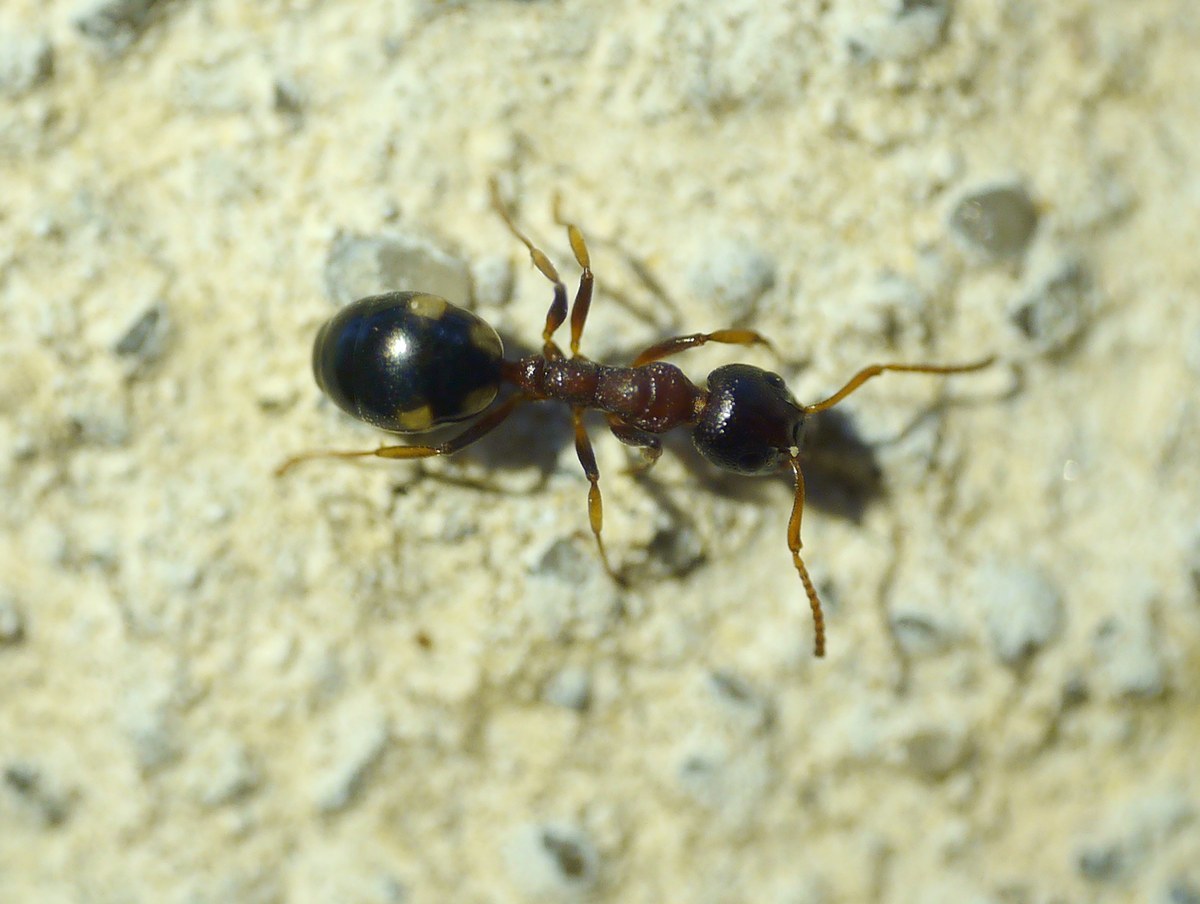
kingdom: Animalia
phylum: Arthropoda
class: Insecta
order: Hymenoptera
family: Formicidae
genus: Dolichoderus
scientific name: Dolichoderus quadripunctatus
